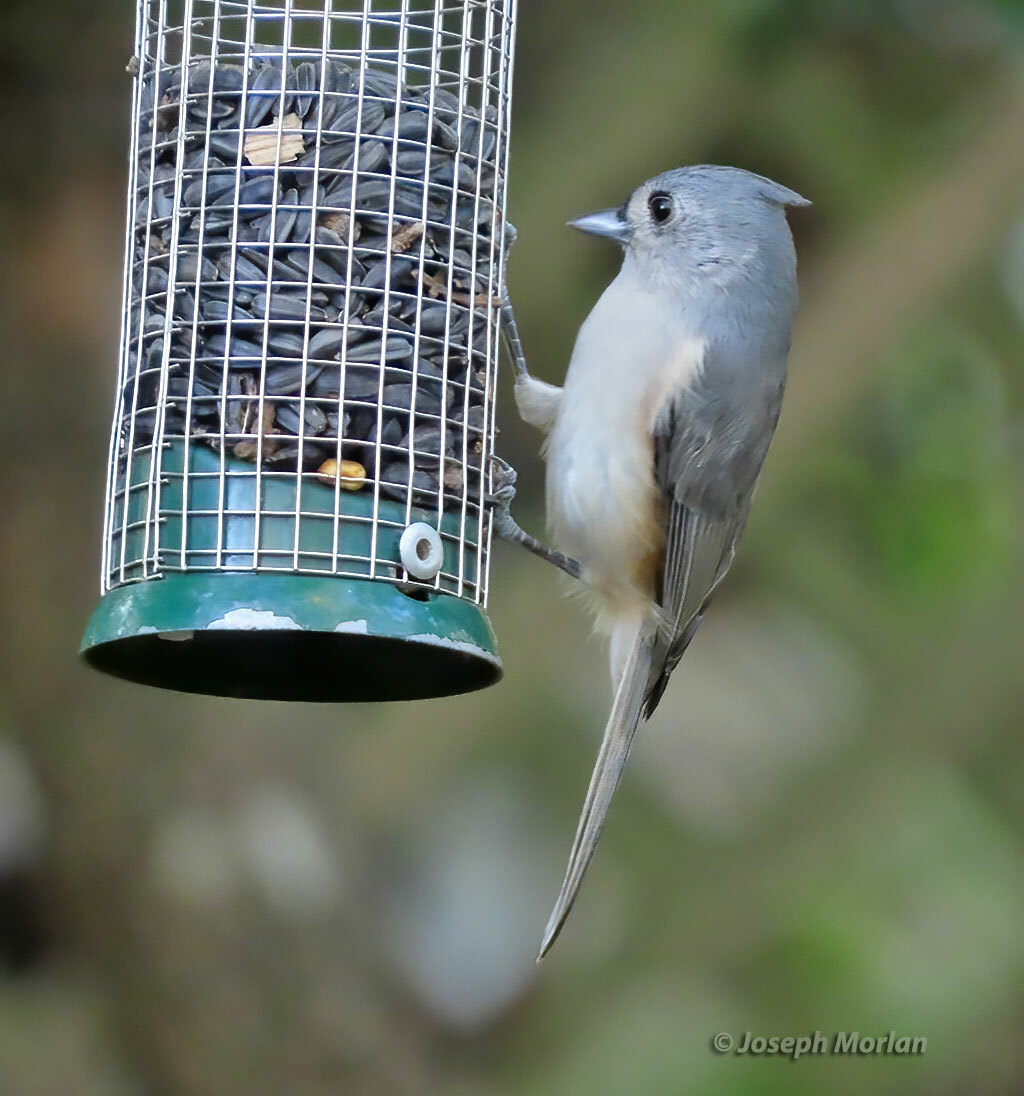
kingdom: Animalia
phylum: Chordata
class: Aves
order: Passeriformes
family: Paridae
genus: Baeolophus
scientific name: Baeolophus bicolor
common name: Tufted titmouse
